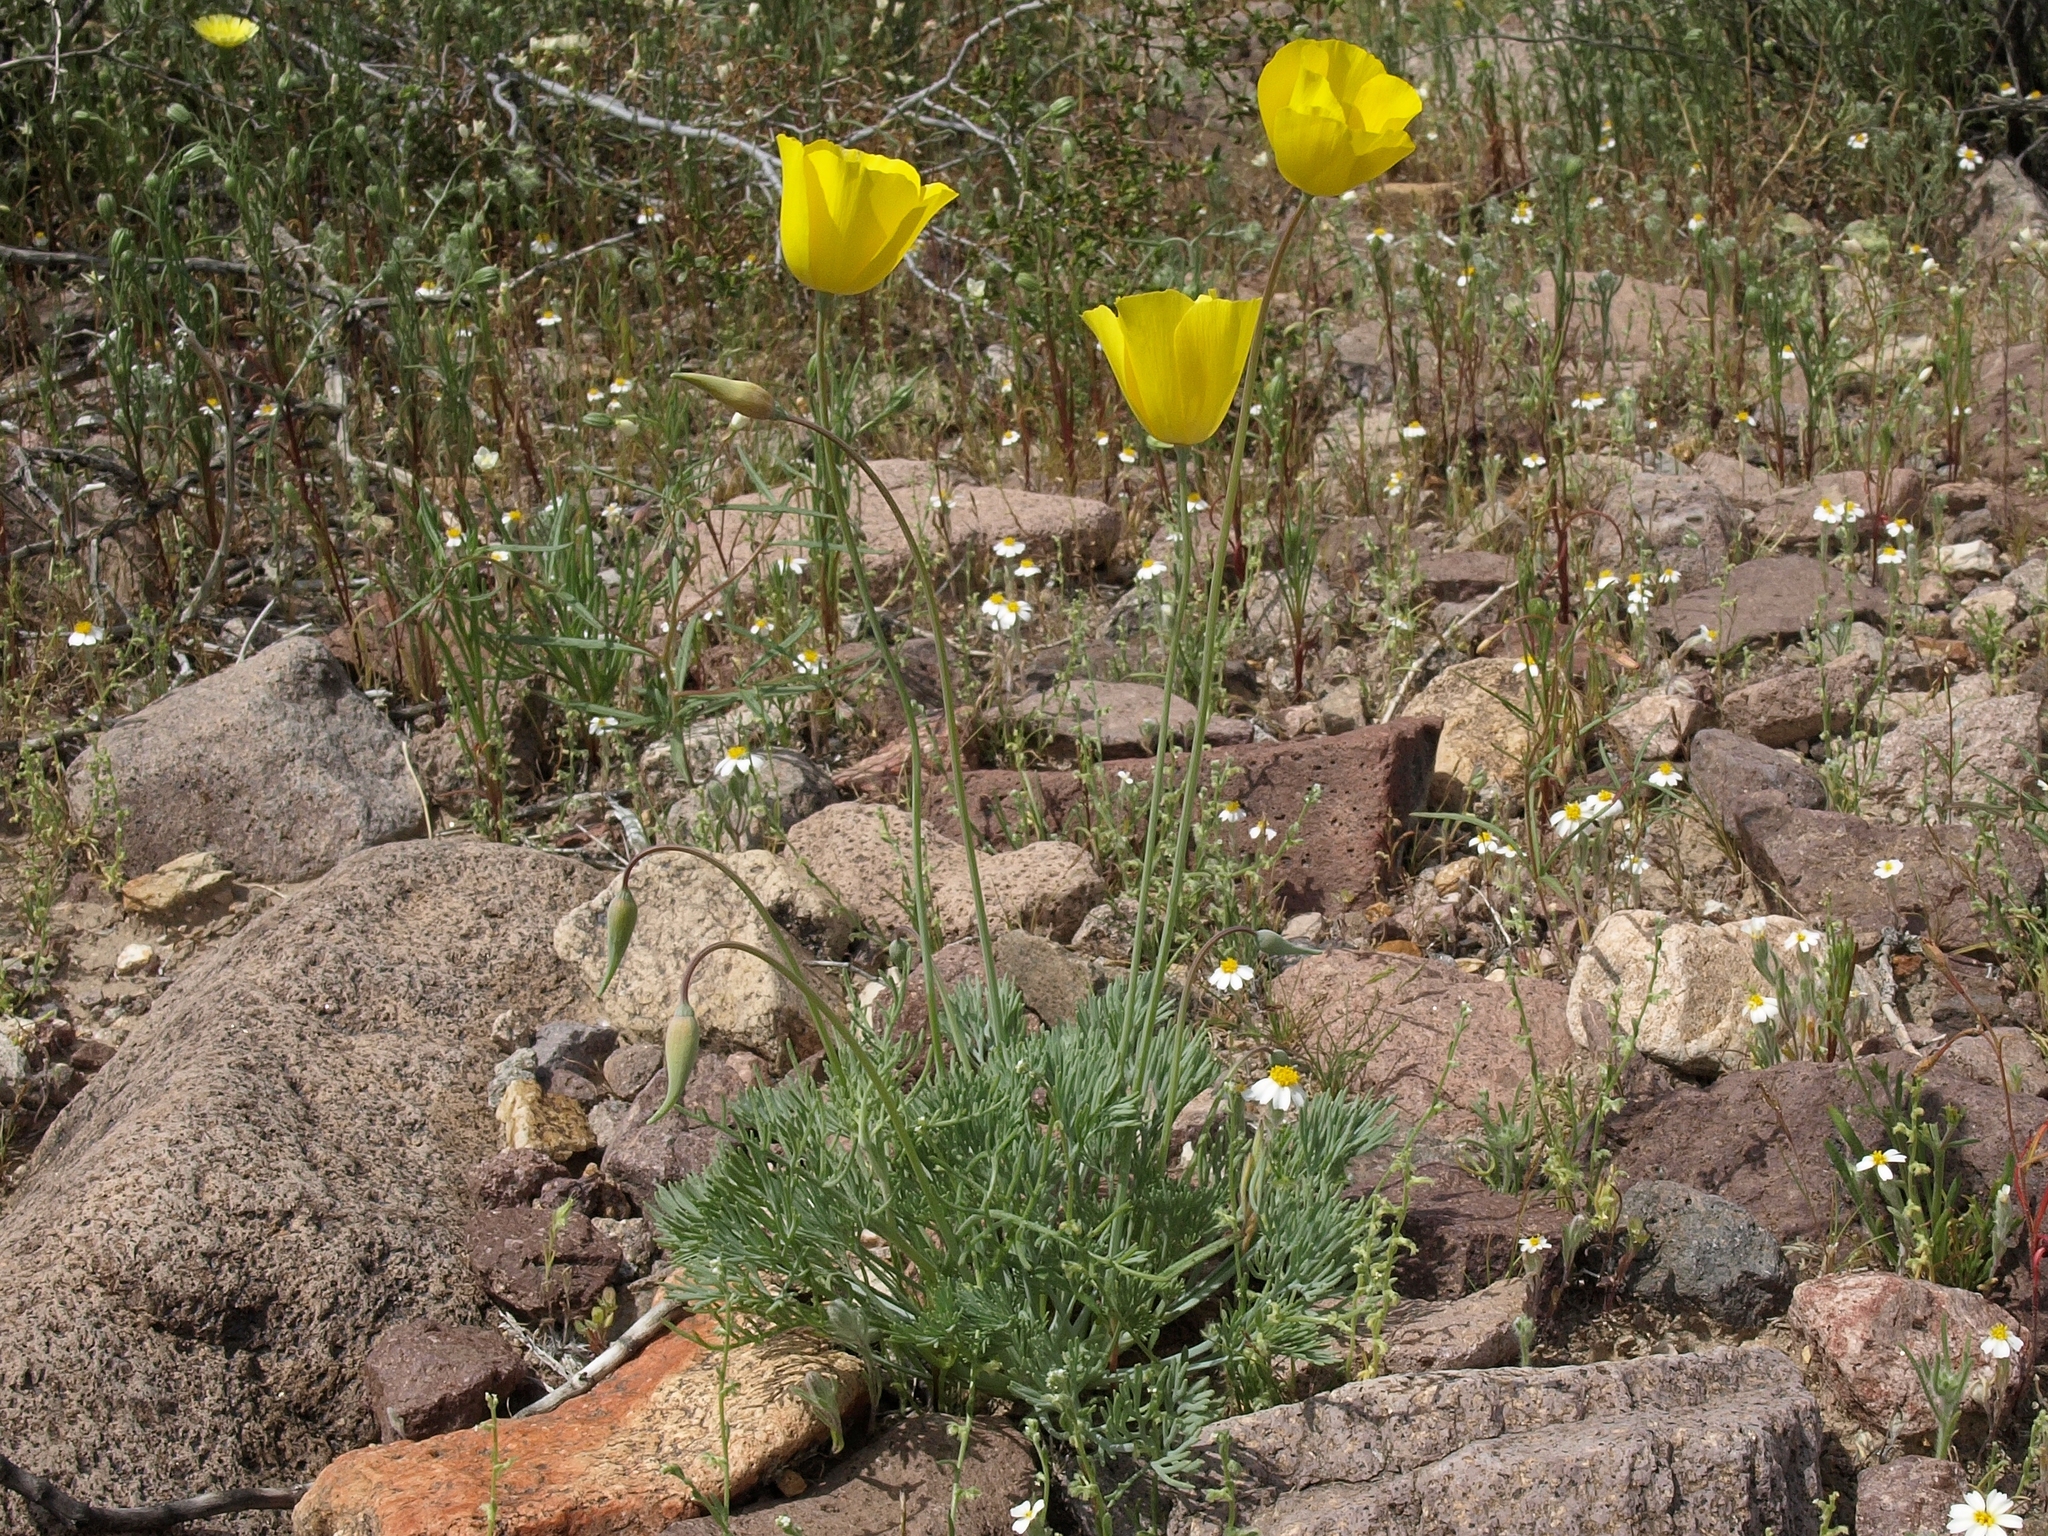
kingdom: Plantae
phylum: Tracheophyta
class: Magnoliopsida
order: Ranunculales
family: Papaveraceae
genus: Eschscholzia
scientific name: Eschscholzia glyptosperma
